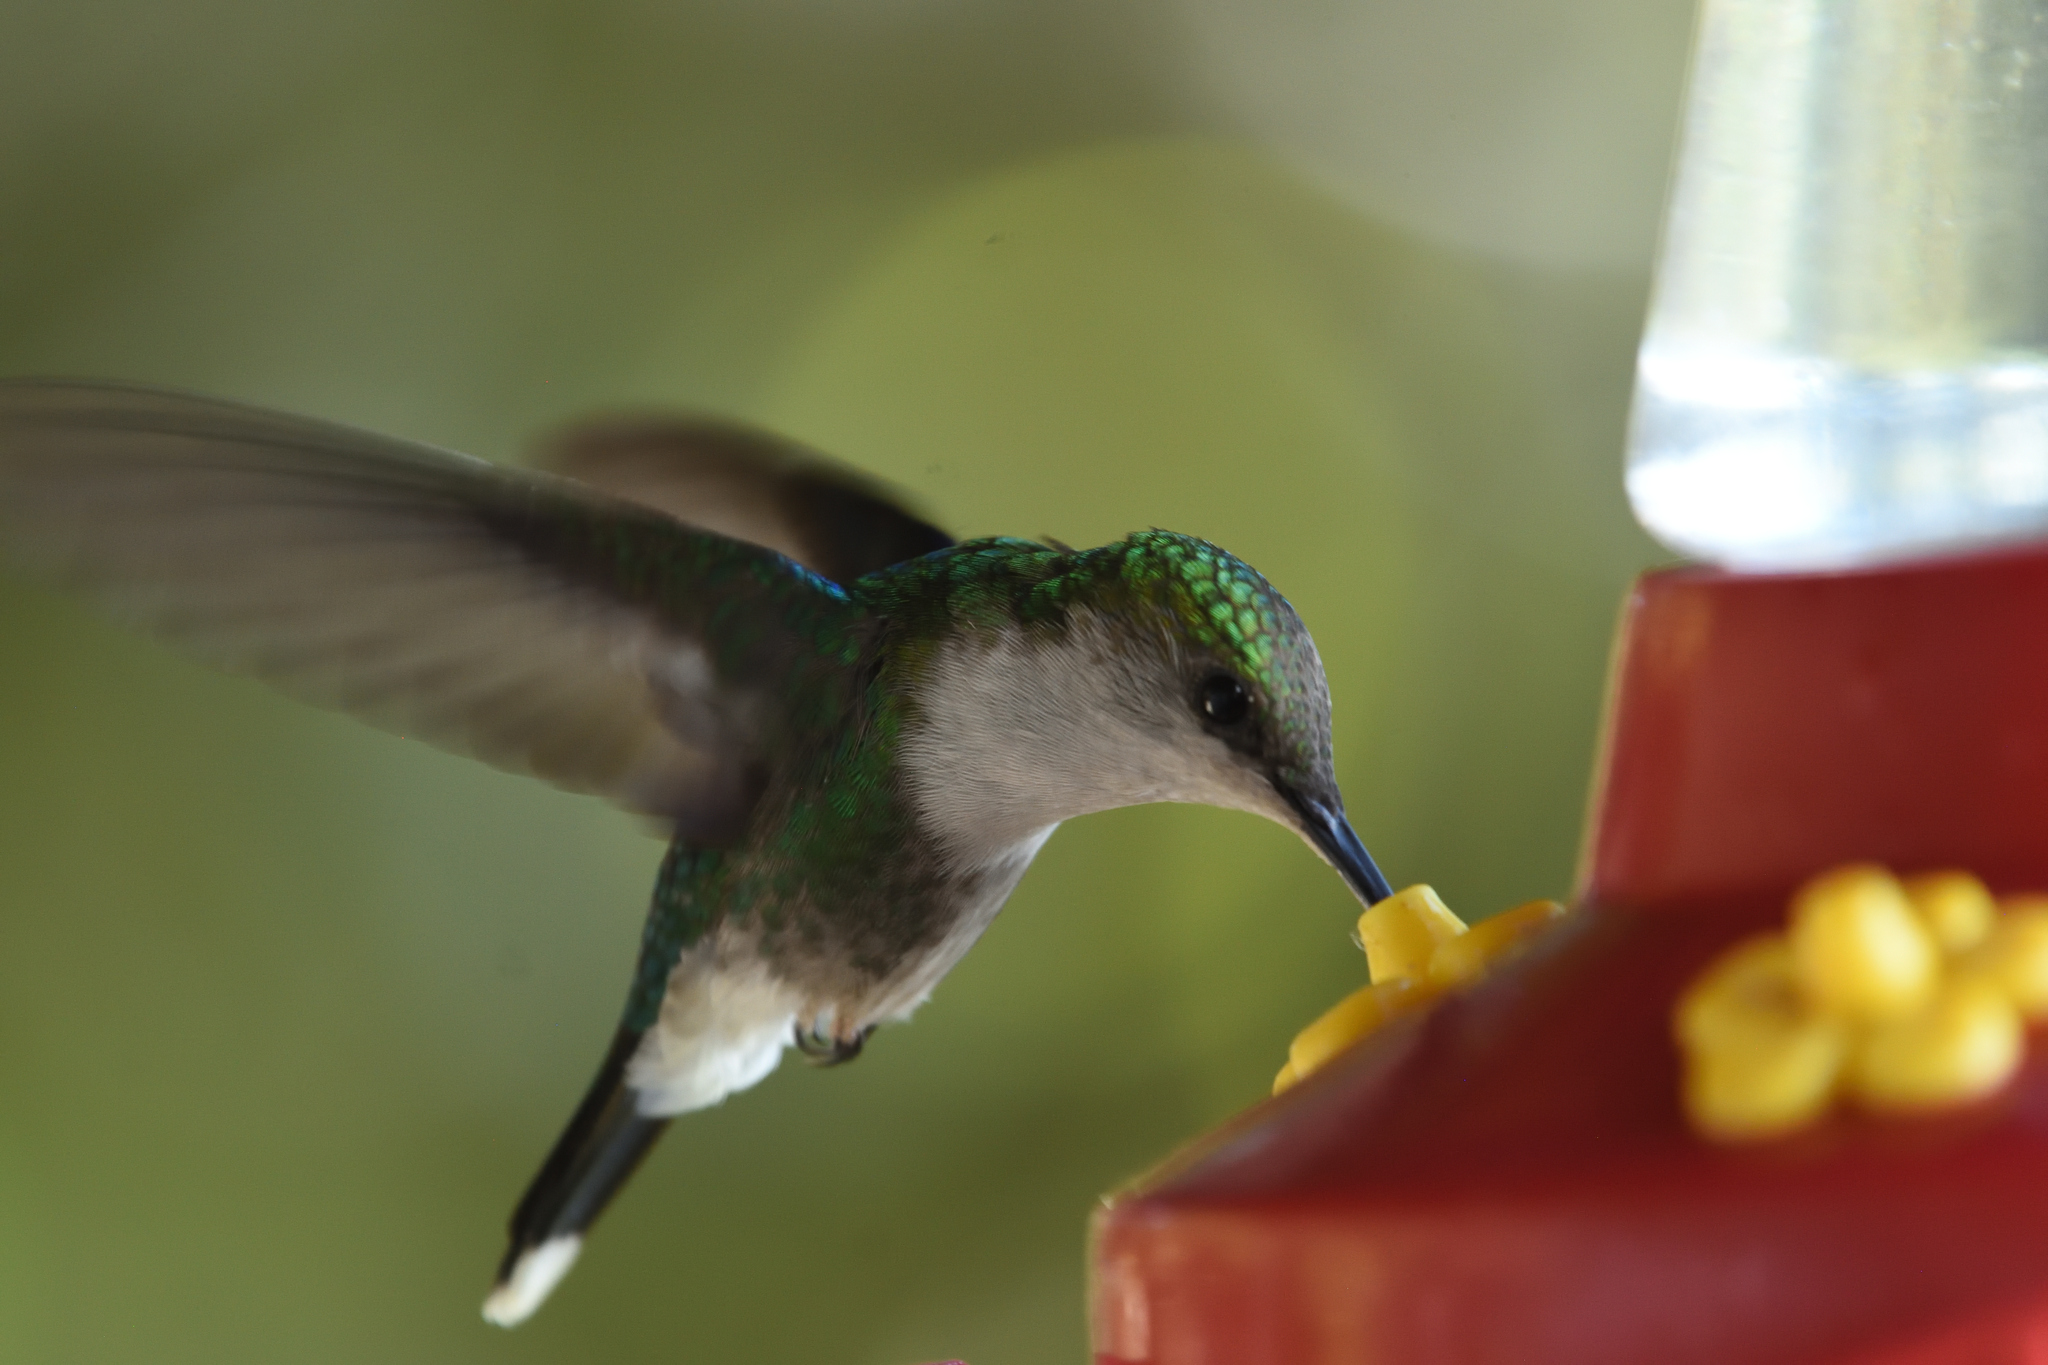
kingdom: Animalia
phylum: Chordata
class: Aves
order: Apodiformes
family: Trochilidae
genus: Thalurania
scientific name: Thalurania colombica
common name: Crowned woodnymph
